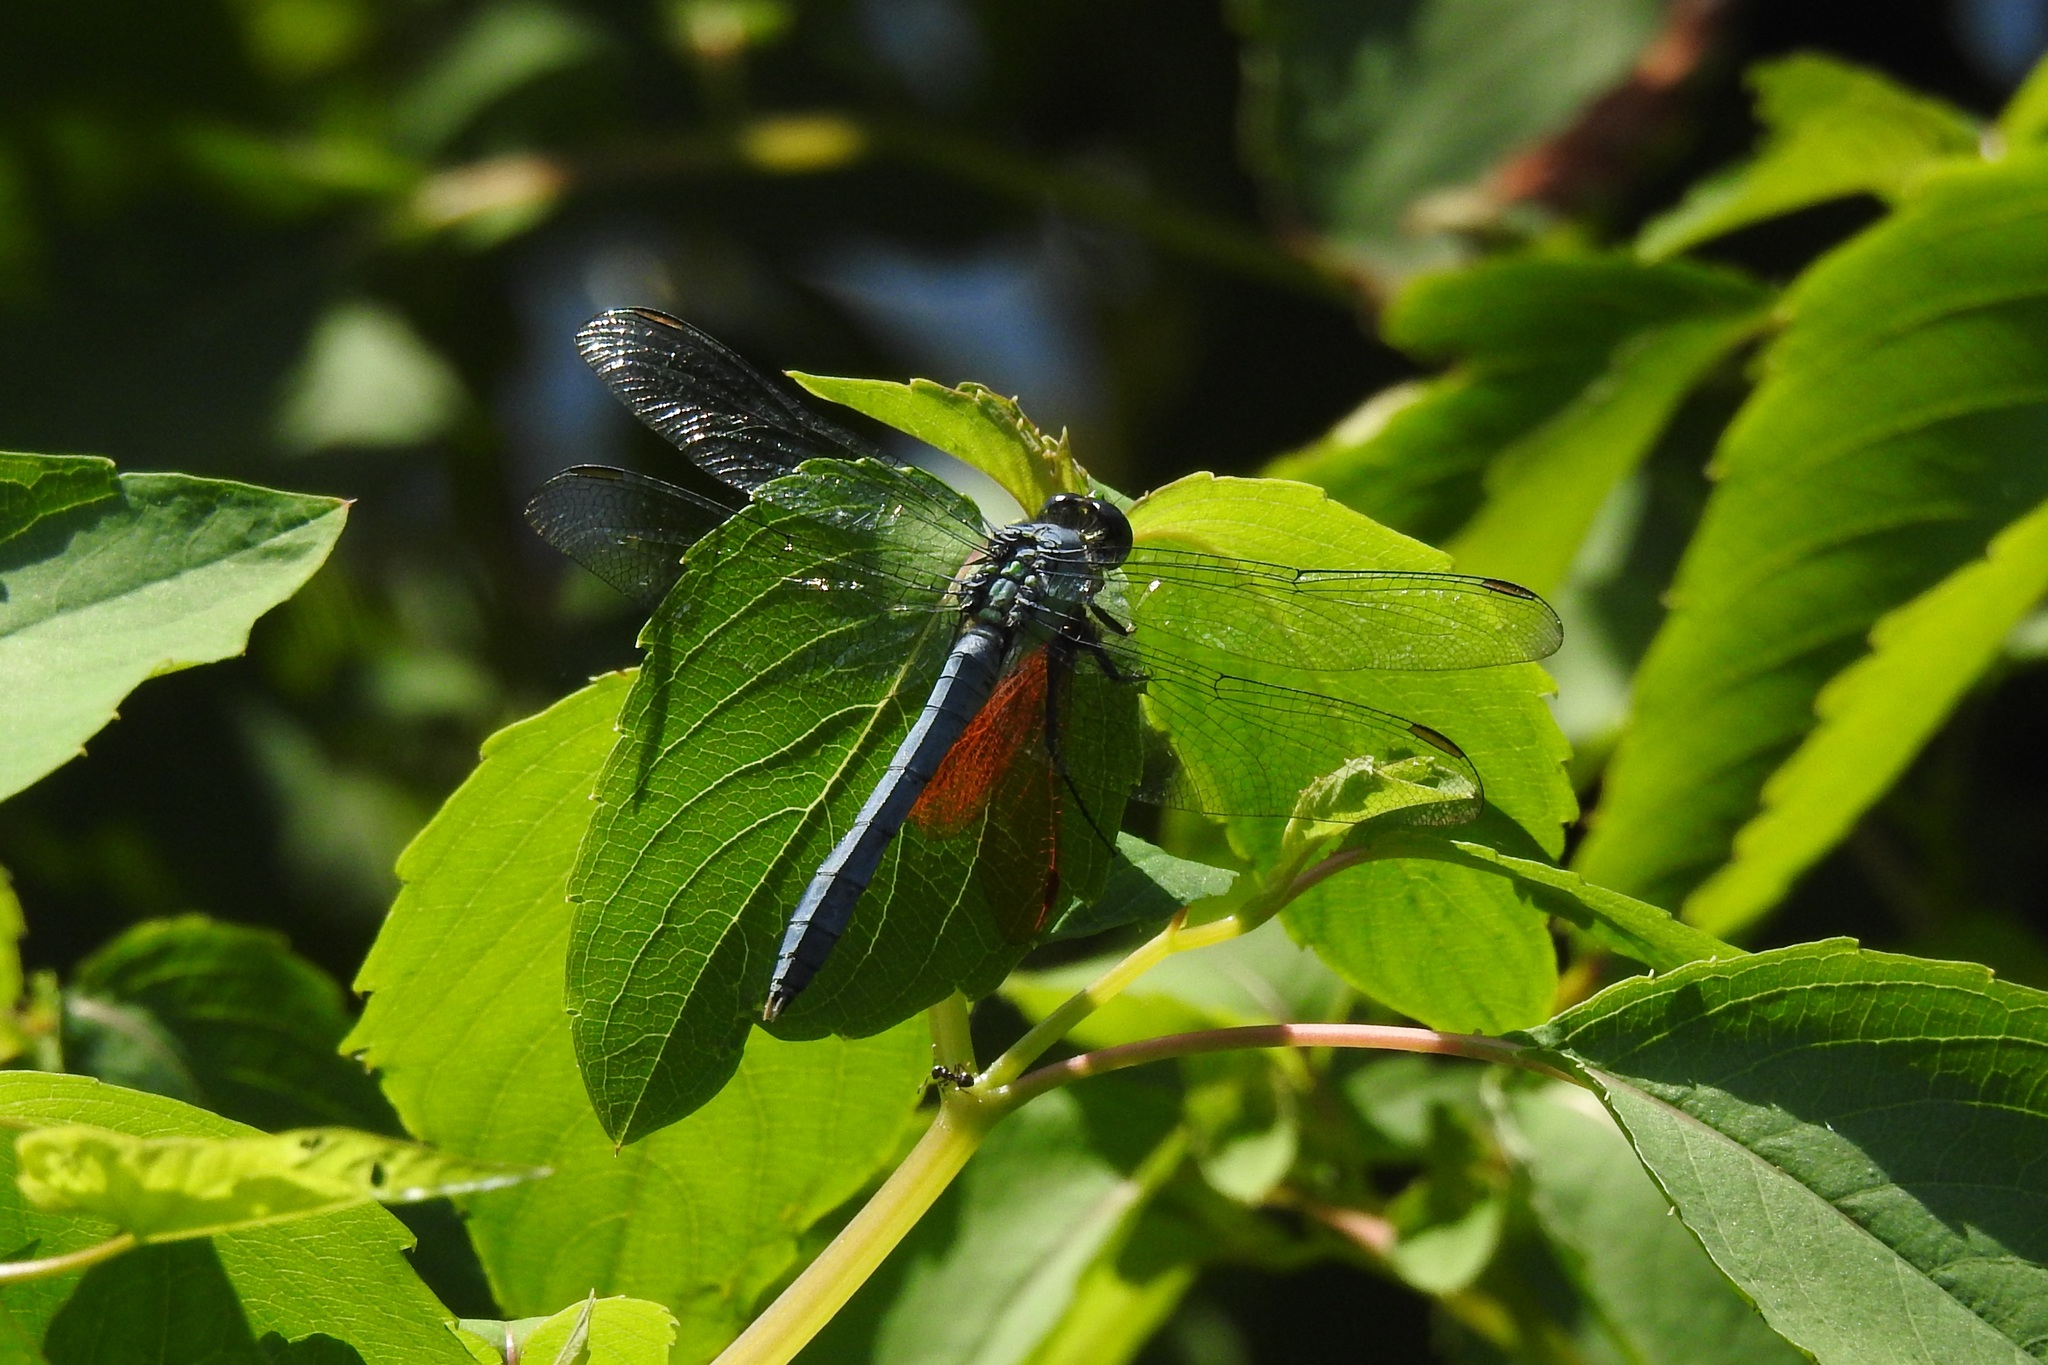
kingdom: Animalia
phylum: Arthropoda
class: Insecta
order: Odonata
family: Libellulidae
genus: Erythemis
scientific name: Erythemis simplicicollis
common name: Eastern pondhawk
